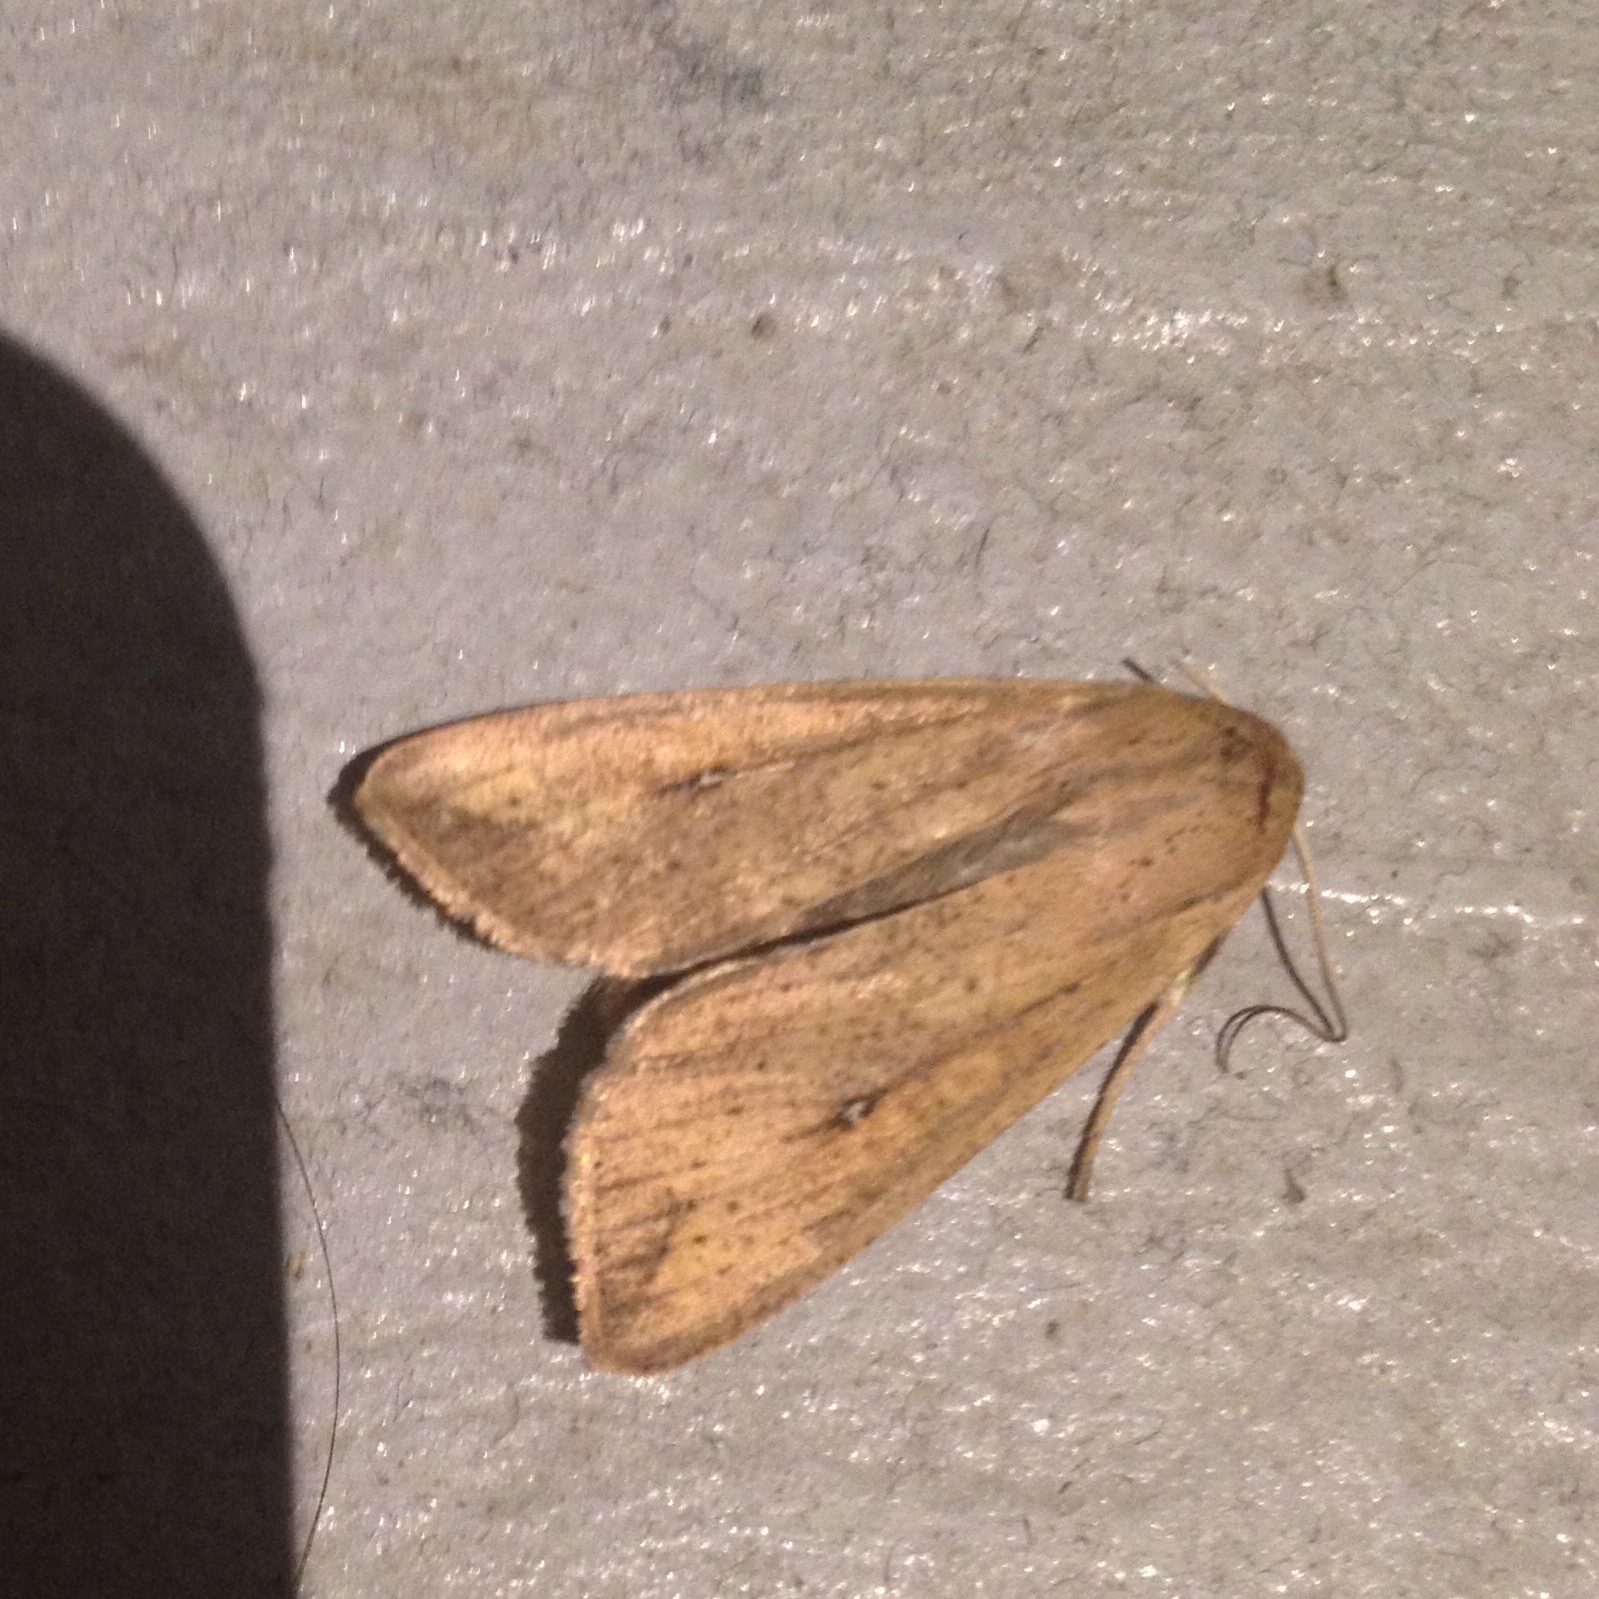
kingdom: Animalia
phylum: Arthropoda
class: Insecta
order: Lepidoptera
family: Noctuidae
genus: Mythimna
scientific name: Mythimna unipuncta
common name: White-speck
